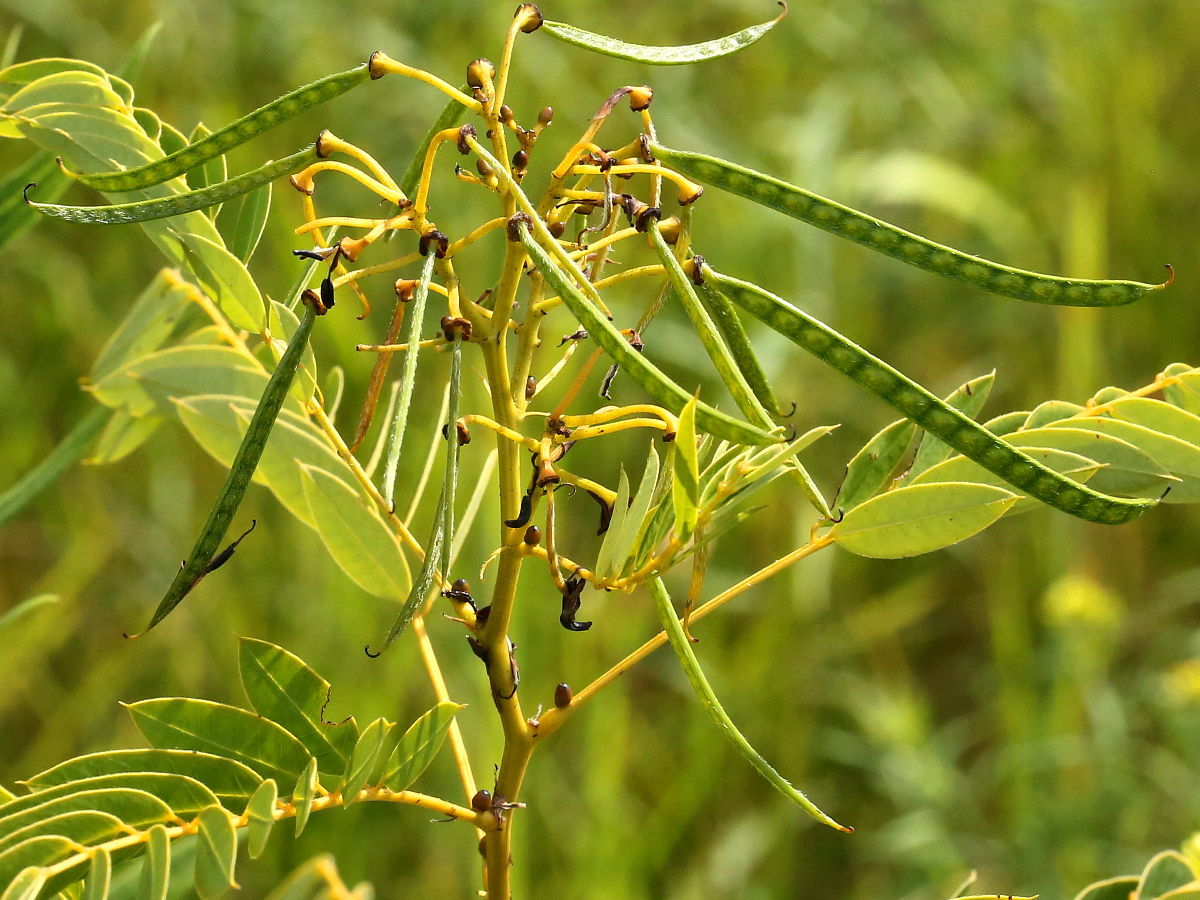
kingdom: Plantae
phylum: Tracheophyta
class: Magnoliopsida
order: Fabales
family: Fabaceae
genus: Senna
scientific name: Senna hebecarpa
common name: Wild senna
